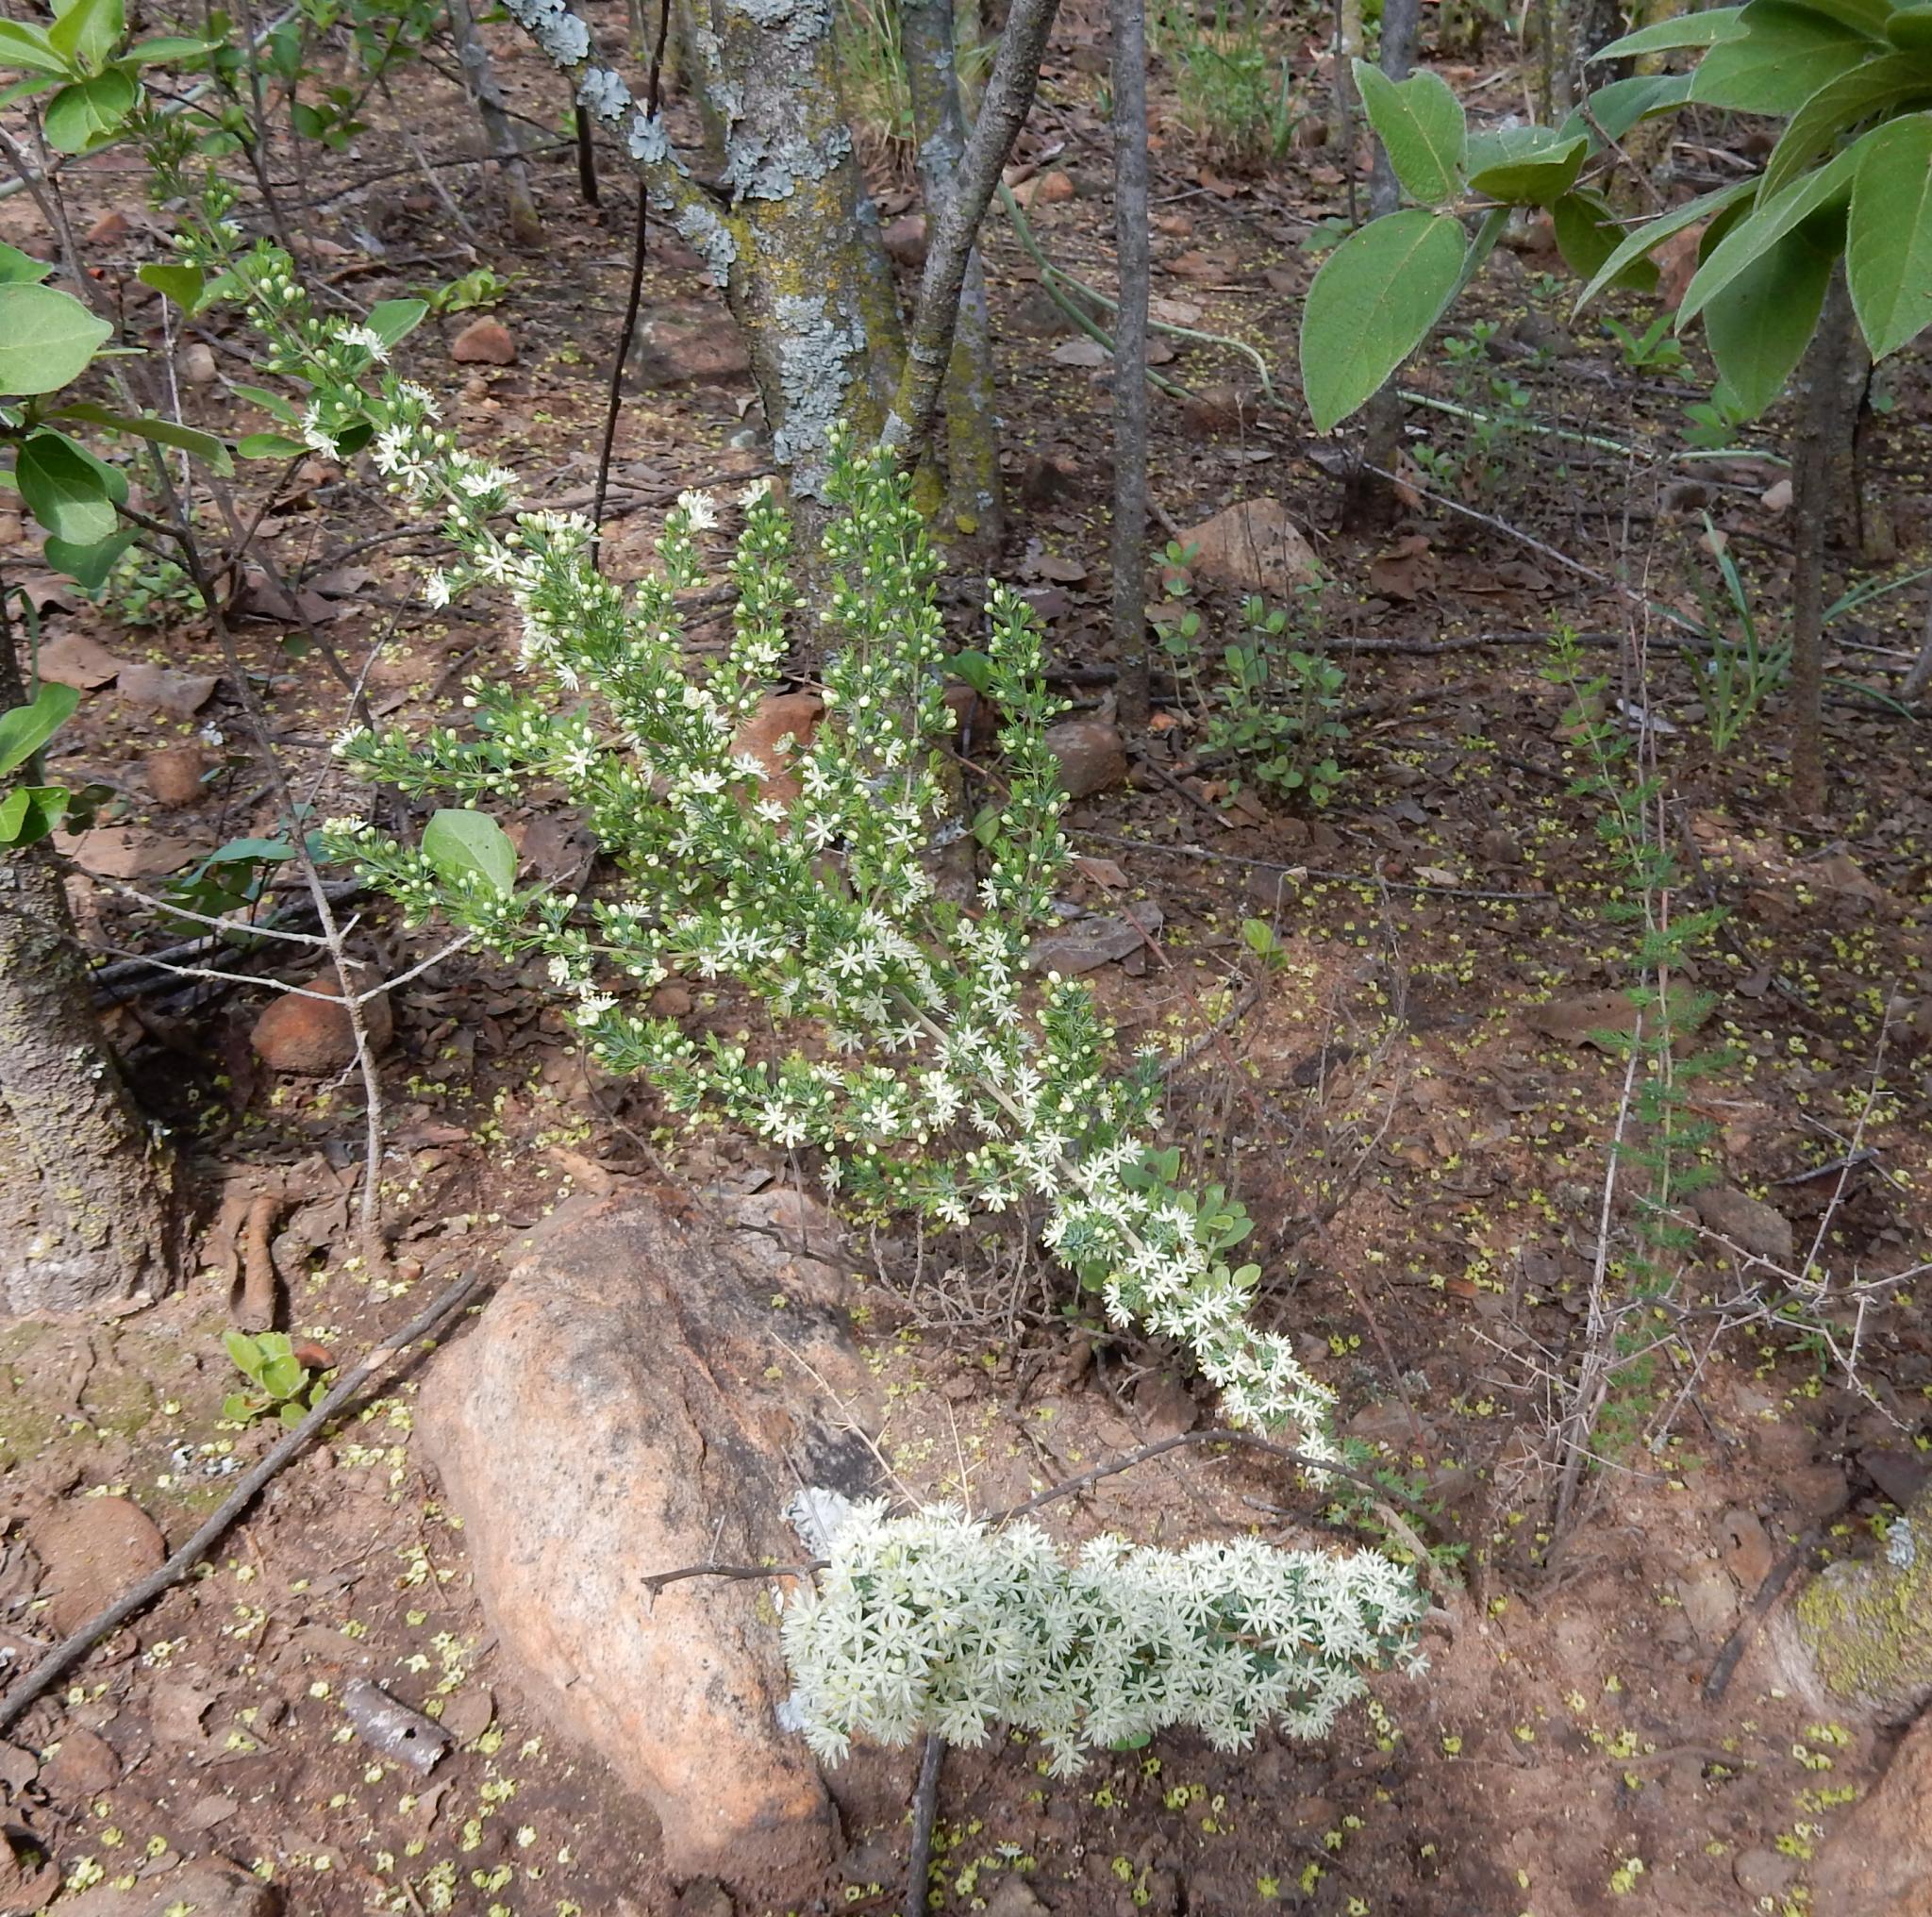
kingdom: Plantae
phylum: Tracheophyta
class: Liliopsida
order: Asparagales
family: Asparagaceae
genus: Asparagus
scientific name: Asparagus flavicaulis
